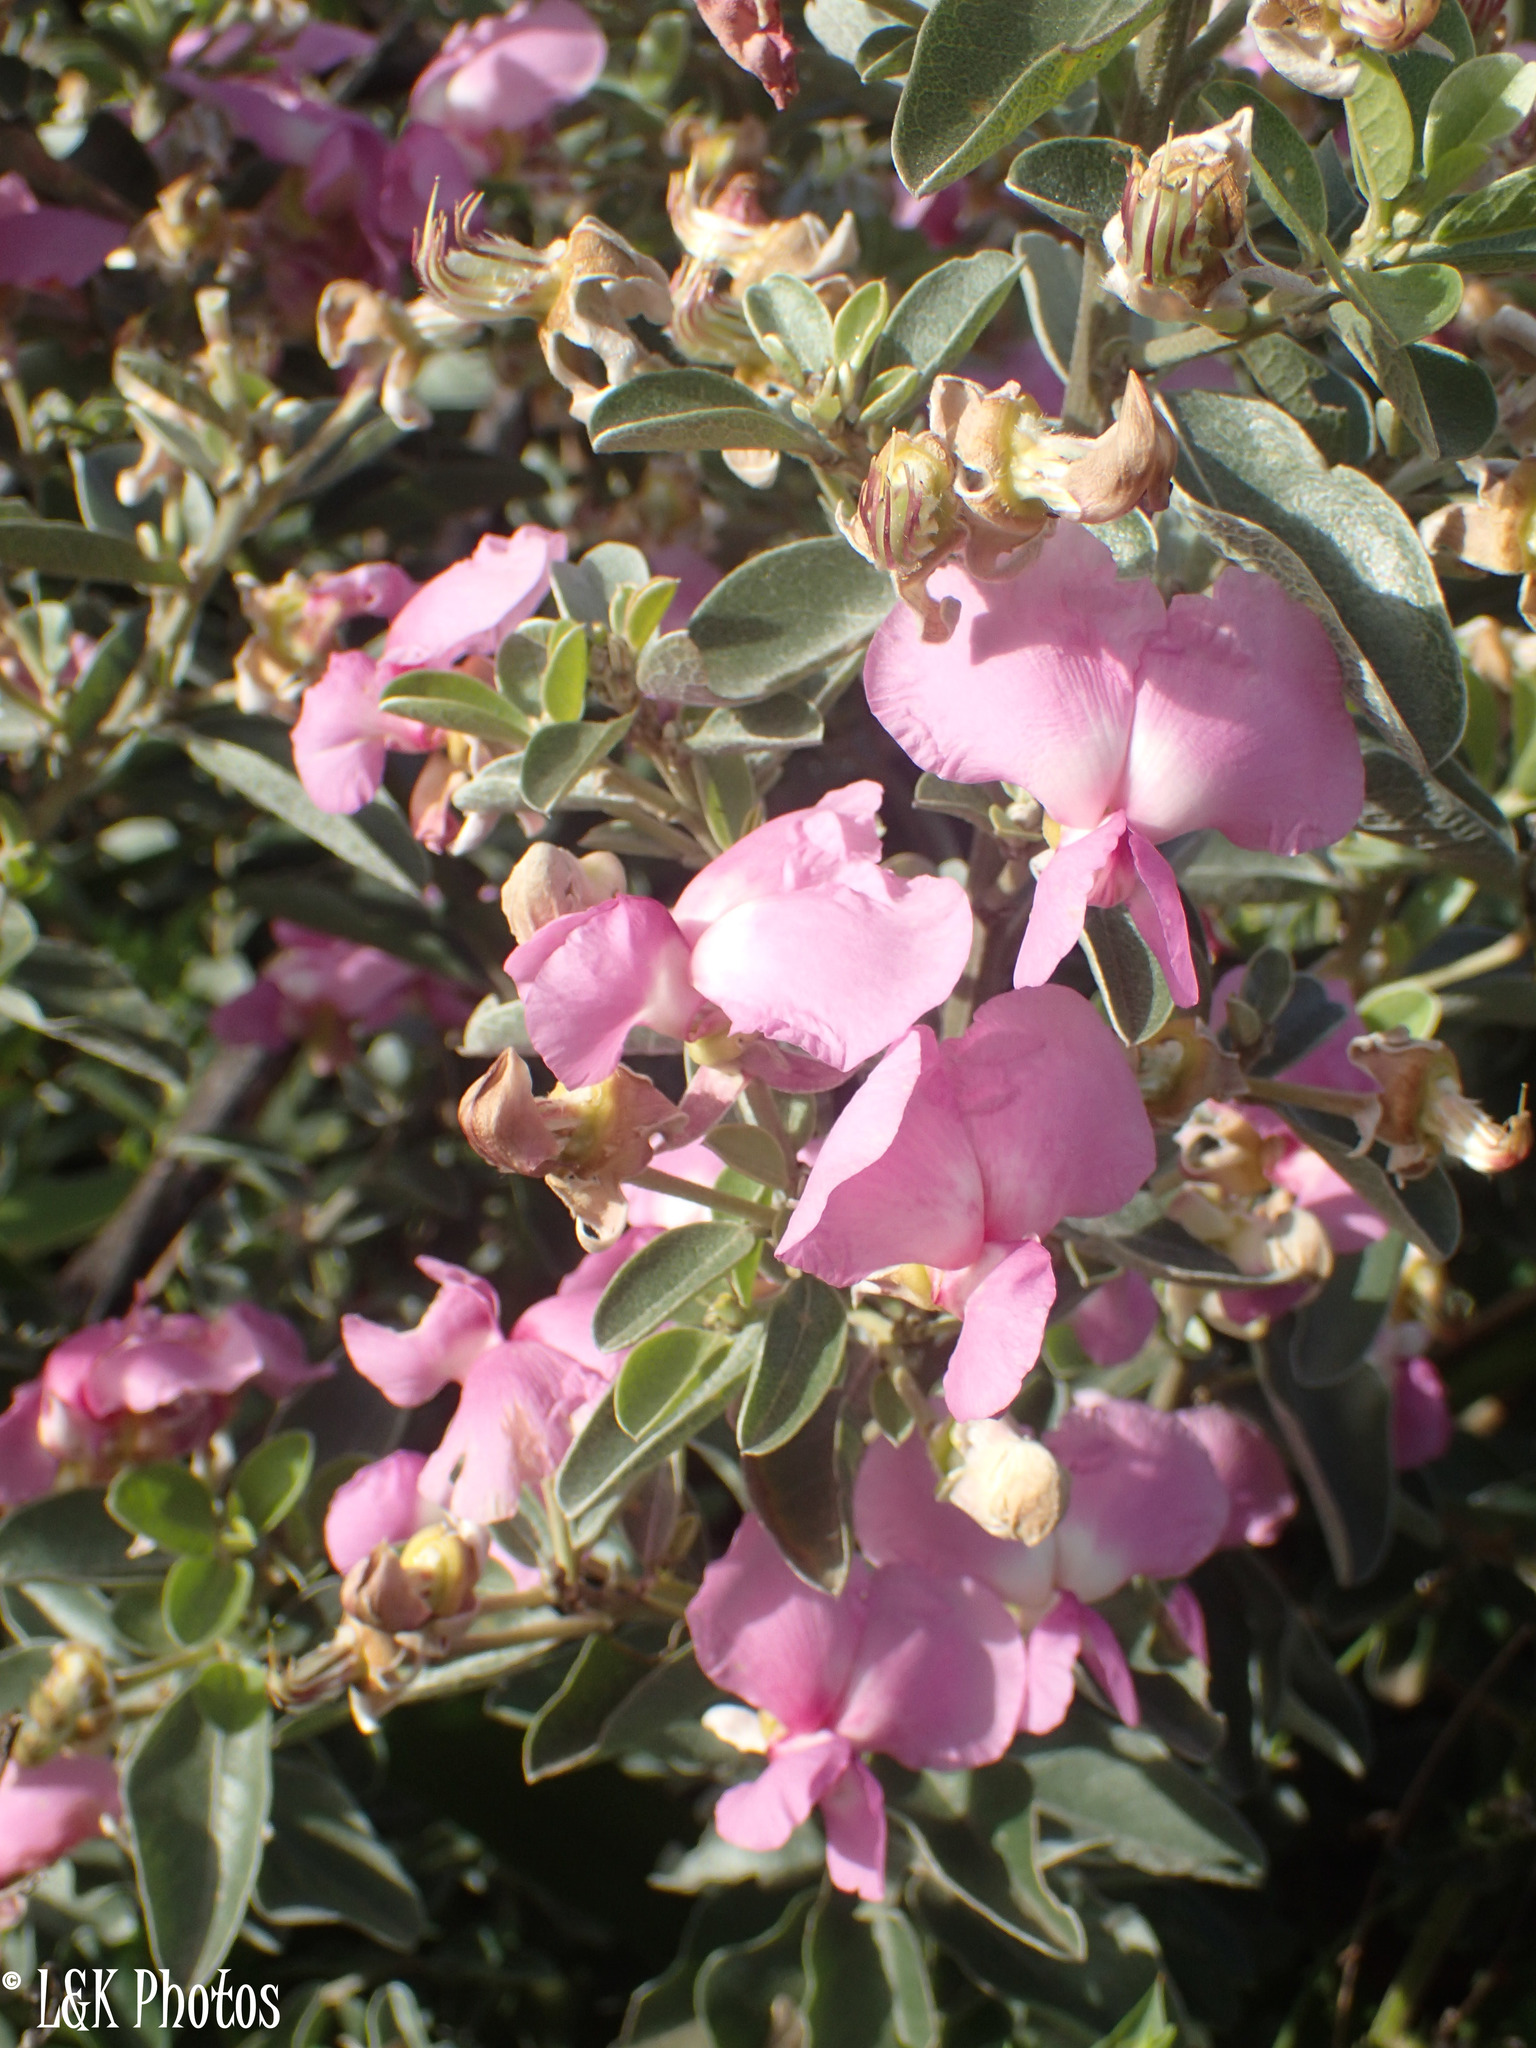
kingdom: Plantae
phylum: Tracheophyta
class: Magnoliopsida
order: Fabales
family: Fabaceae
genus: Podalyria
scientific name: Podalyria calyptrata
